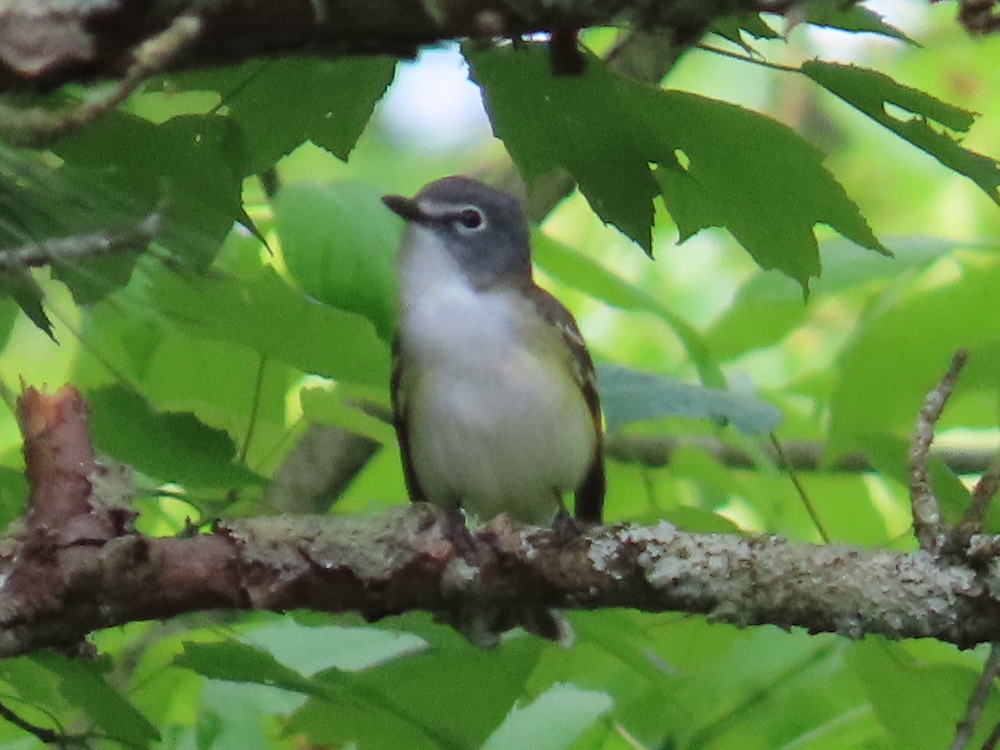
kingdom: Animalia
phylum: Chordata
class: Aves
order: Passeriformes
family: Vireonidae
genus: Vireo
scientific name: Vireo solitarius
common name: Blue-headed vireo
